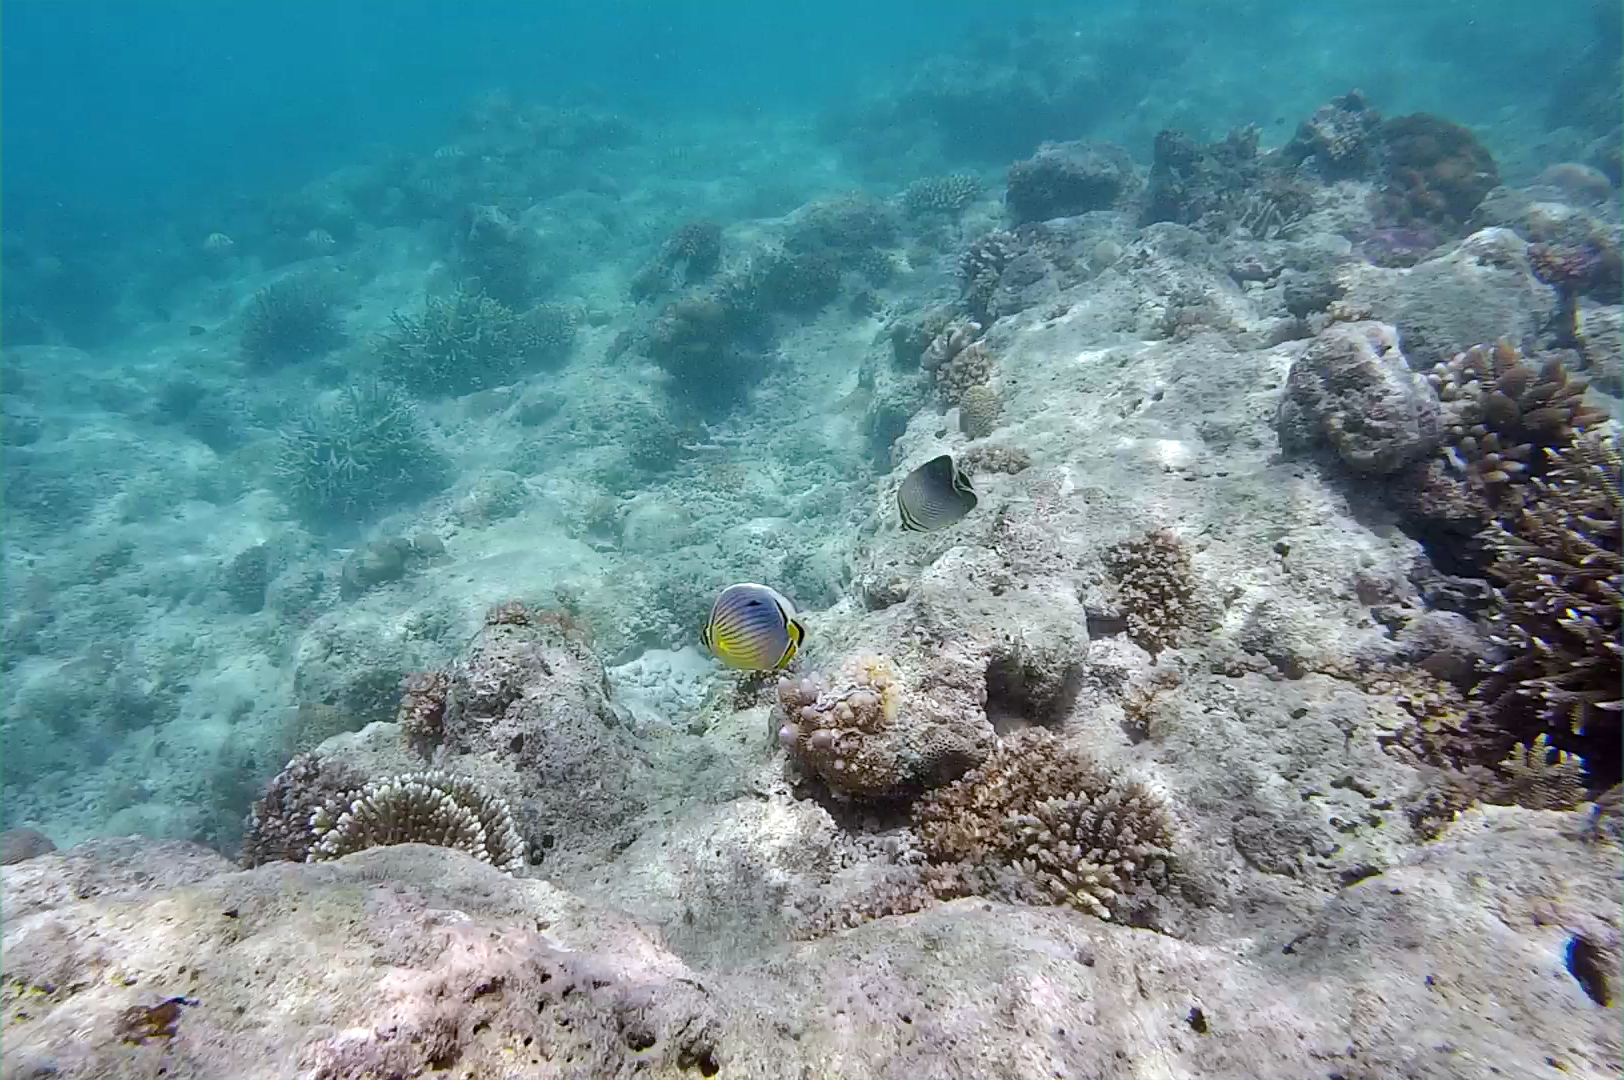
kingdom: Animalia
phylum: Chordata
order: Perciformes
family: Chaetodontidae
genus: Chaetodon
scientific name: Chaetodon triangulum
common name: Triangular butterflyfish
